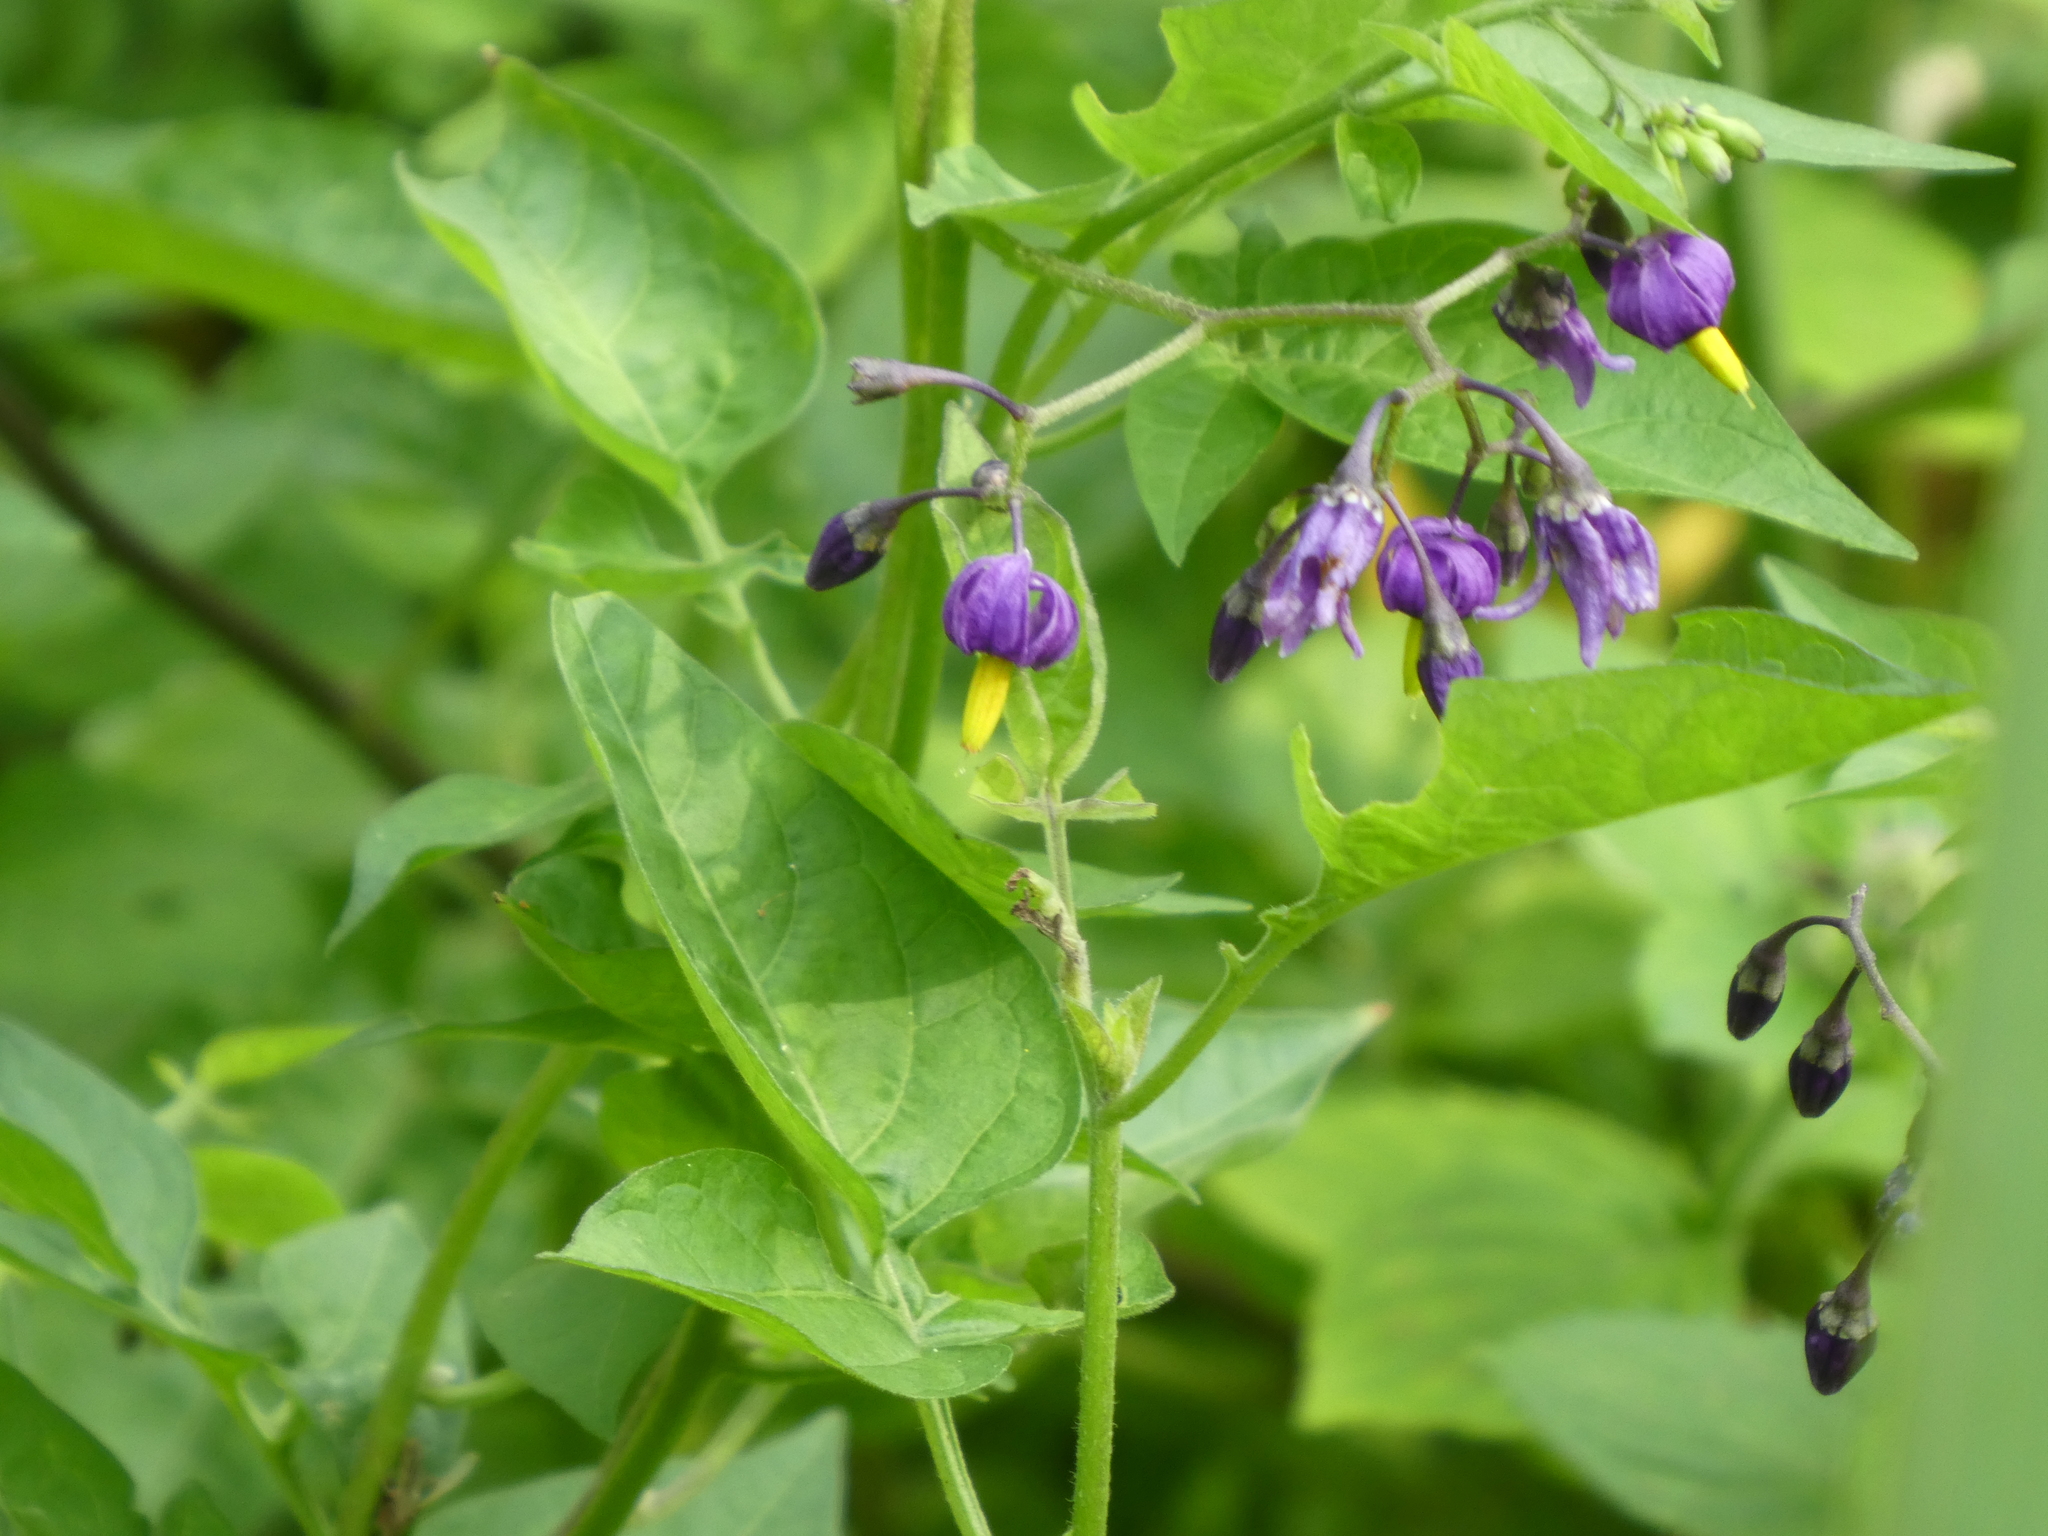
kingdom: Plantae
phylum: Tracheophyta
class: Magnoliopsida
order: Solanales
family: Solanaceae
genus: Solanum
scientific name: Solanum dulcamara
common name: Climbing nightshade
